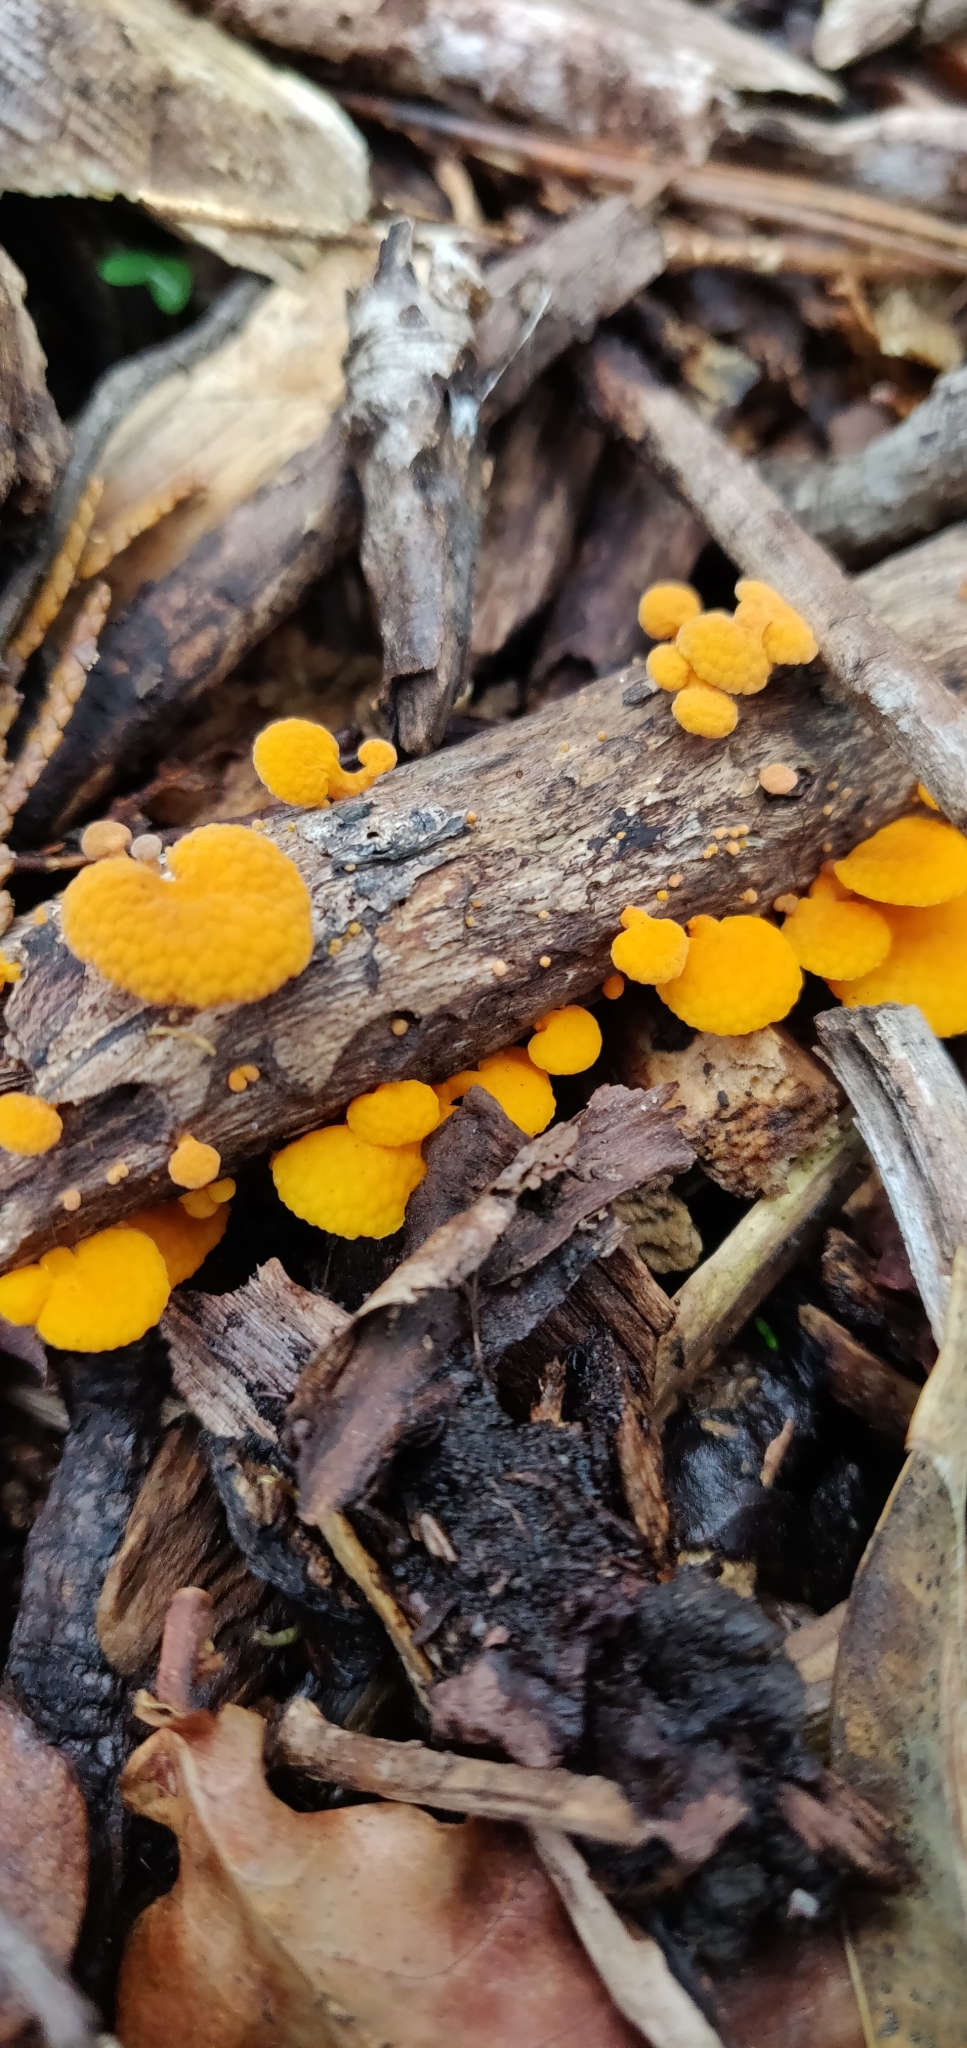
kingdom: Fungi
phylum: Basidiomycota
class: Agaricomycetes
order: Agaricales
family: Mycenaceae
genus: Favolaschia
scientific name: Favolaschia claudopus
